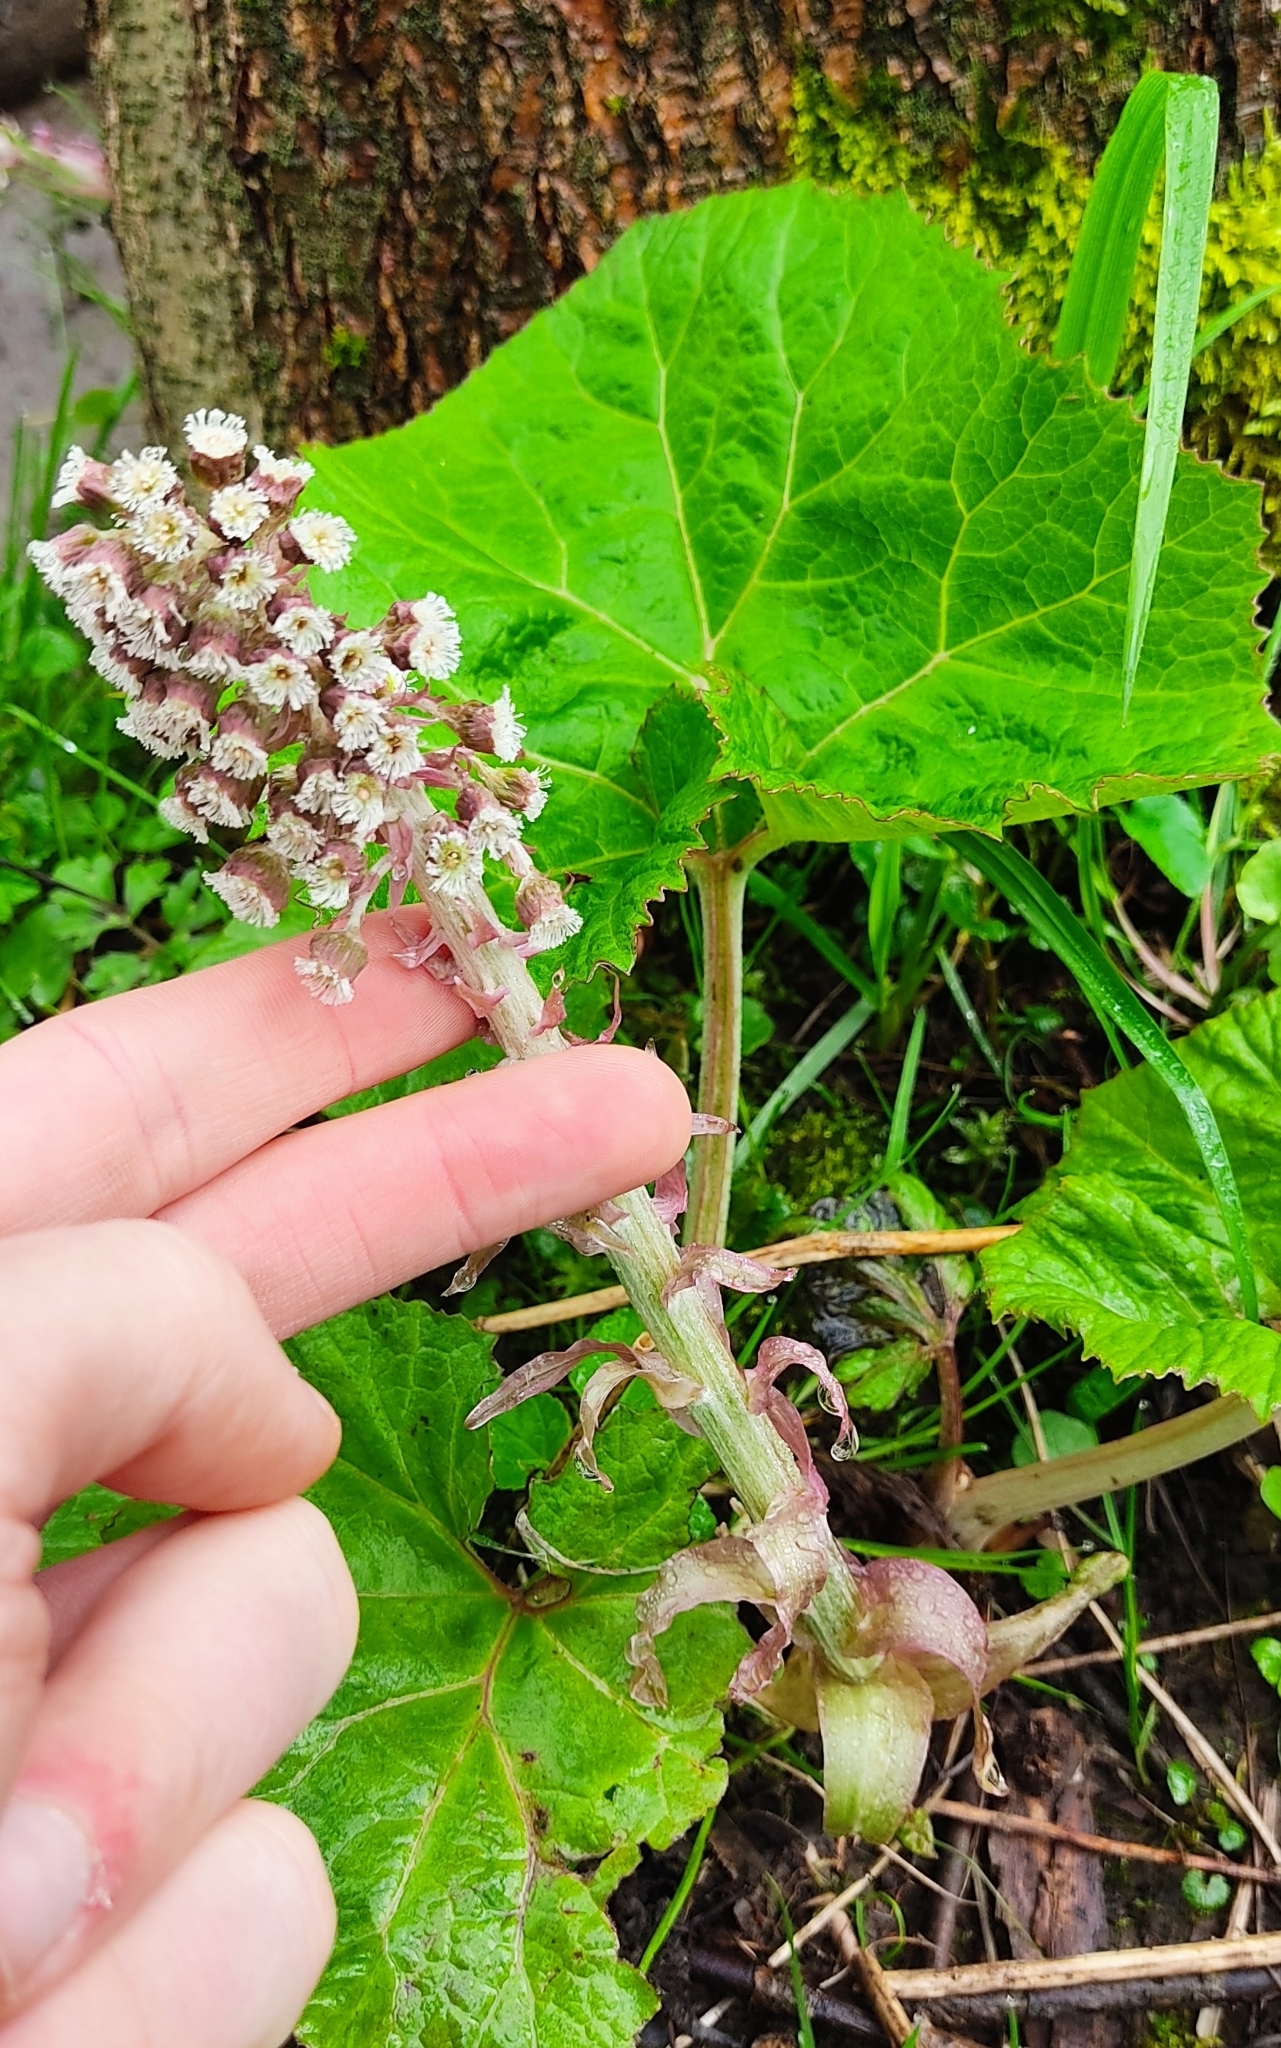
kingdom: Plantae
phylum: Tracheophyta
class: Magnoliopsida
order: Asterales
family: Asteraceae
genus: Petasites
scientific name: Petasites hybridus
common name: Butterbur
